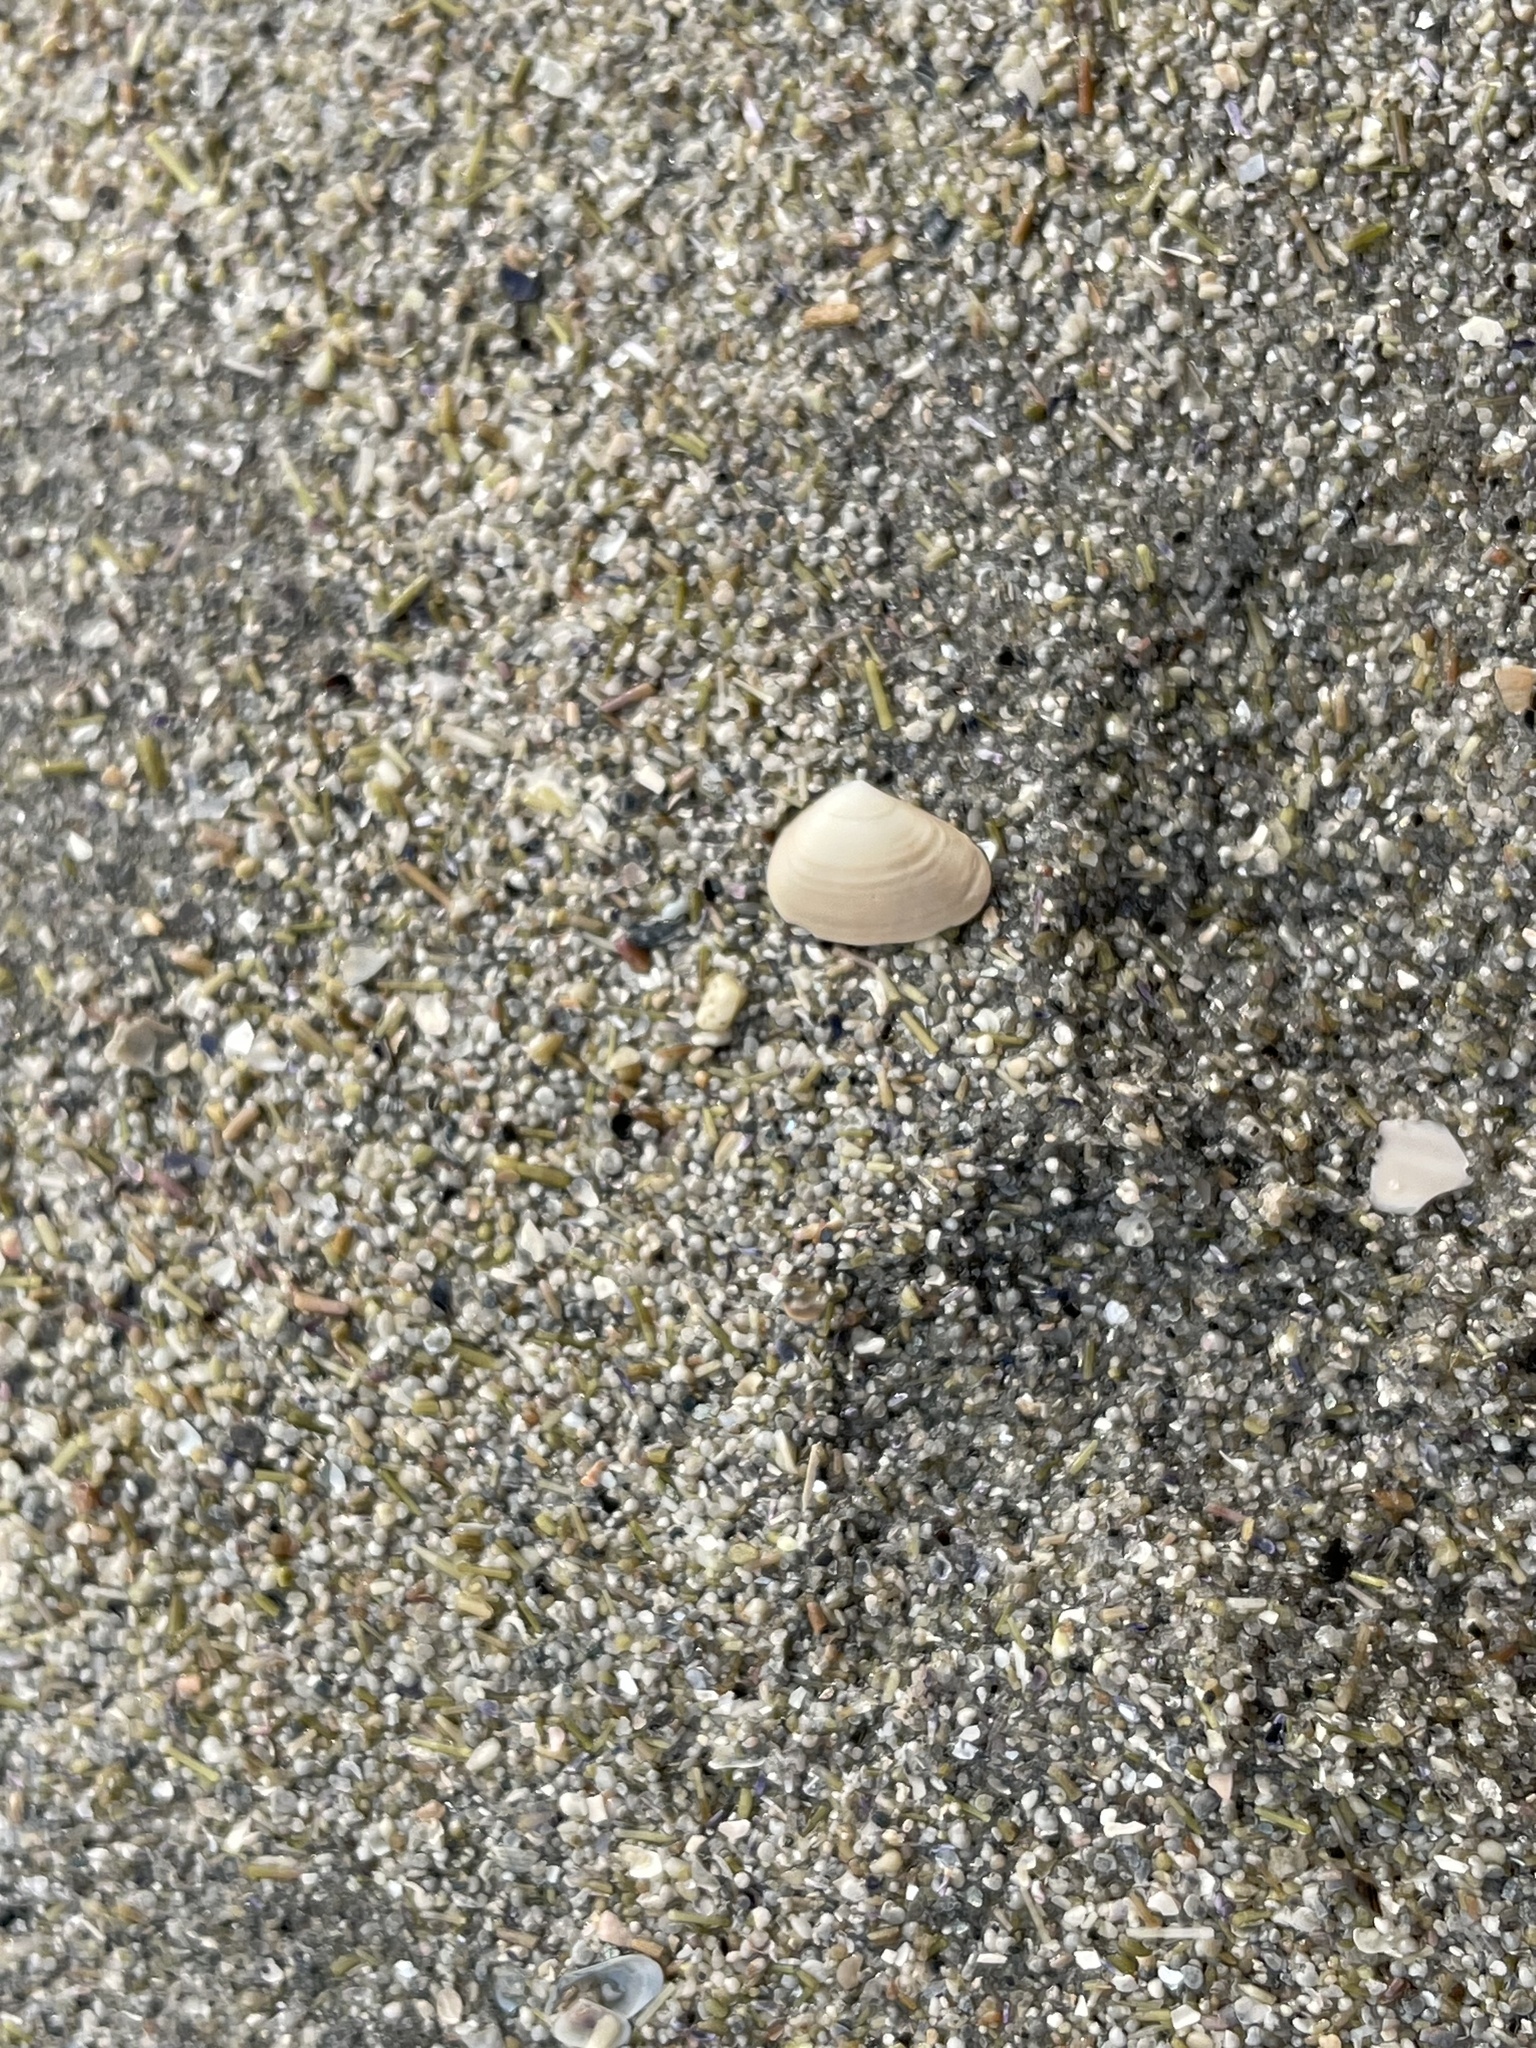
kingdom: Animalia
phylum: Mollusca
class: Bivalvia
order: Venerida
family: Mesodesmatidae
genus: Mesodesma
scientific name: Mesodesma arctatum
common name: Compressed clam
